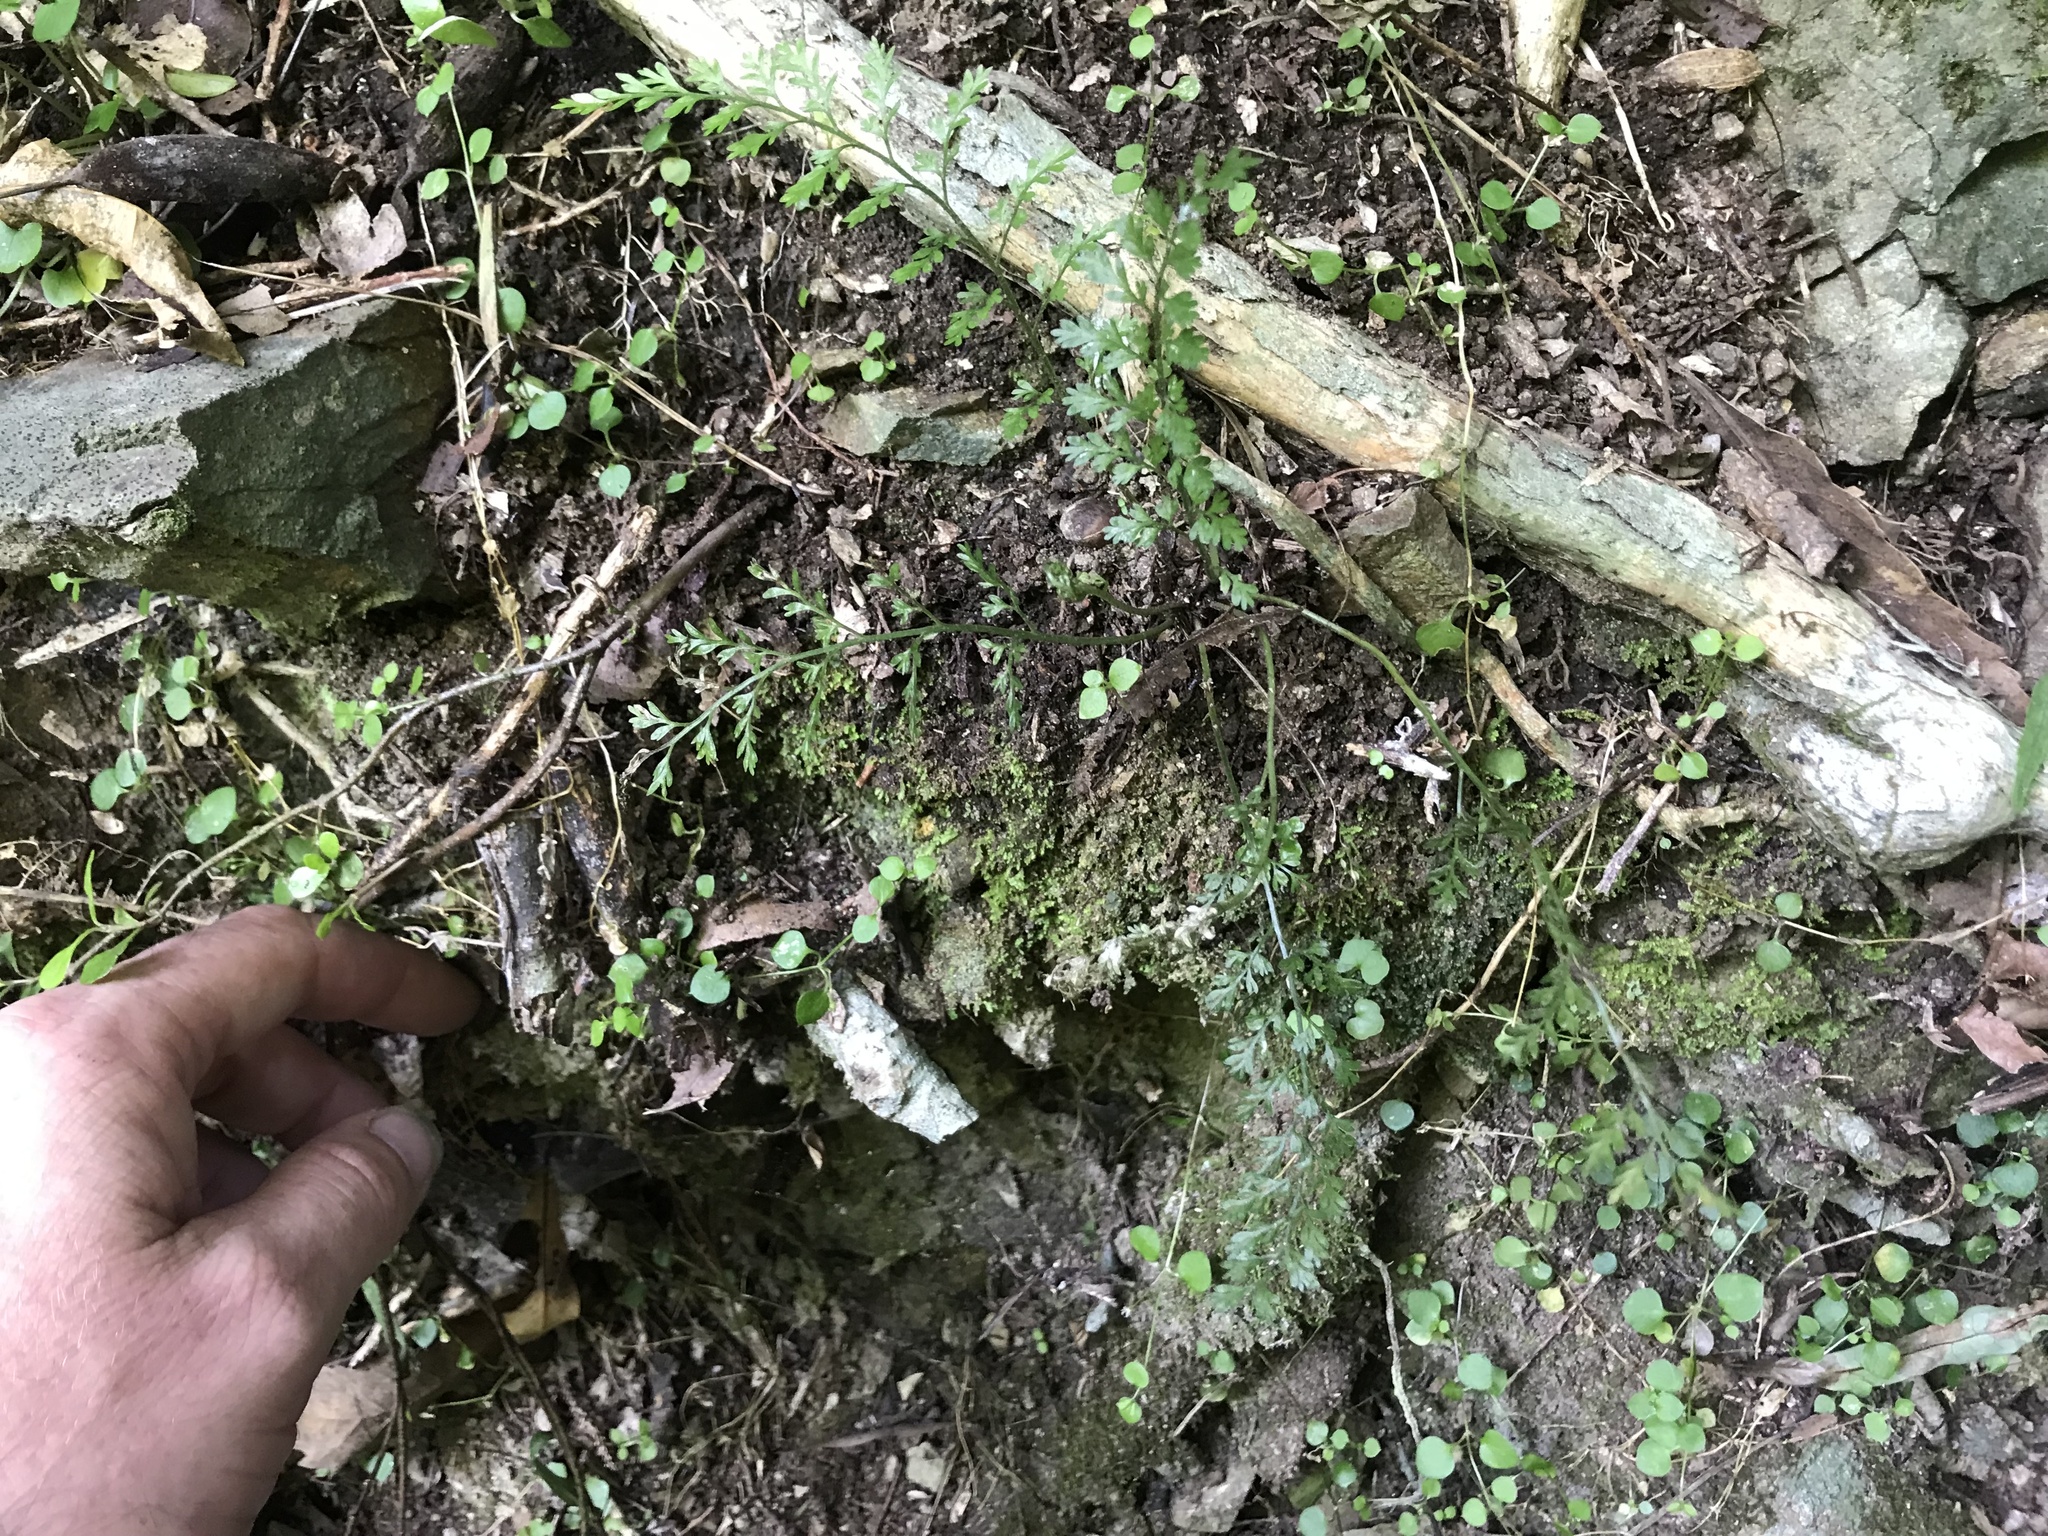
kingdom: Plantae
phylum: Tracheophyta
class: Polypodiopsida
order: Polypodiales
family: Aspleniaceae
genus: Asplenium
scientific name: Asplenium hookerianum
